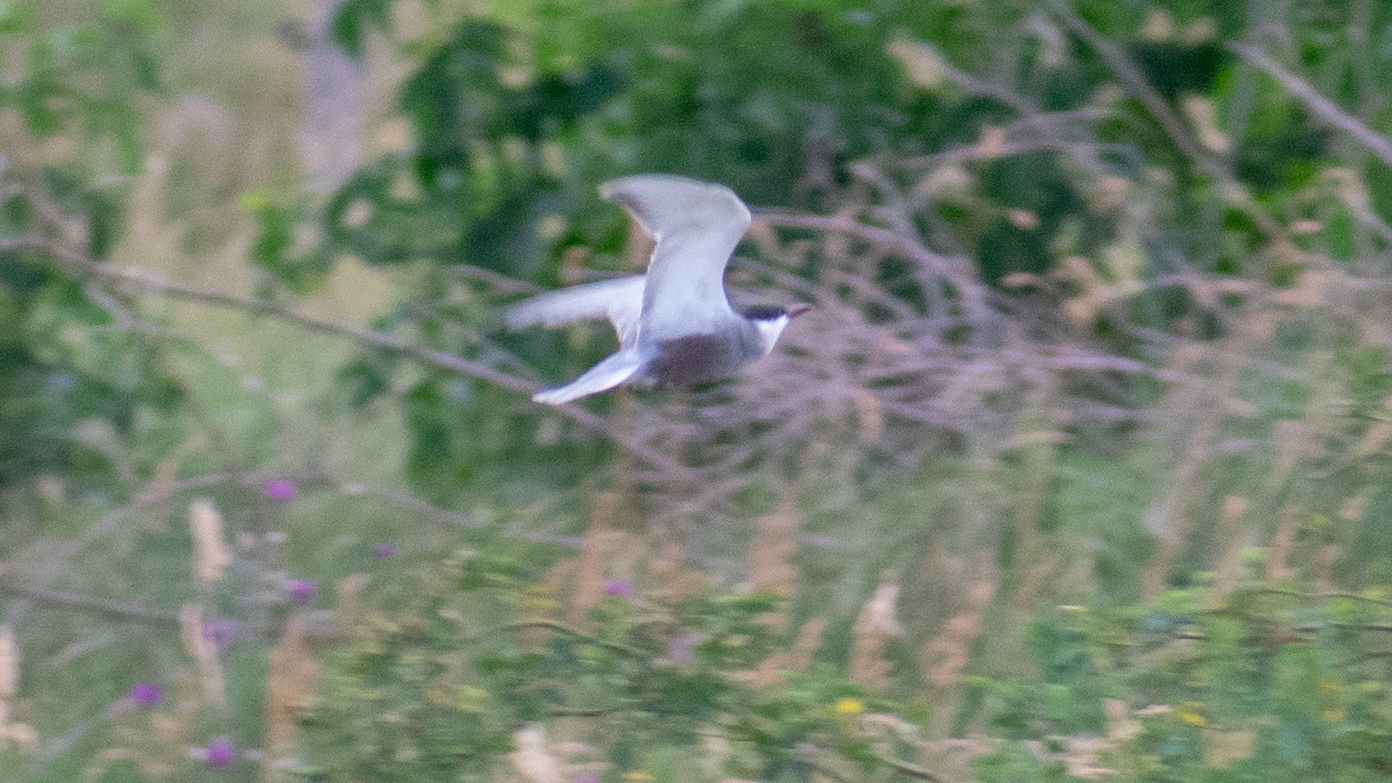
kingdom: Animalia
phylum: Chordata
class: Aves
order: Charadriiformes
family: Laridae
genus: Chlidonias
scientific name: Chlidonias hybrida
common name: Whiskered tern
